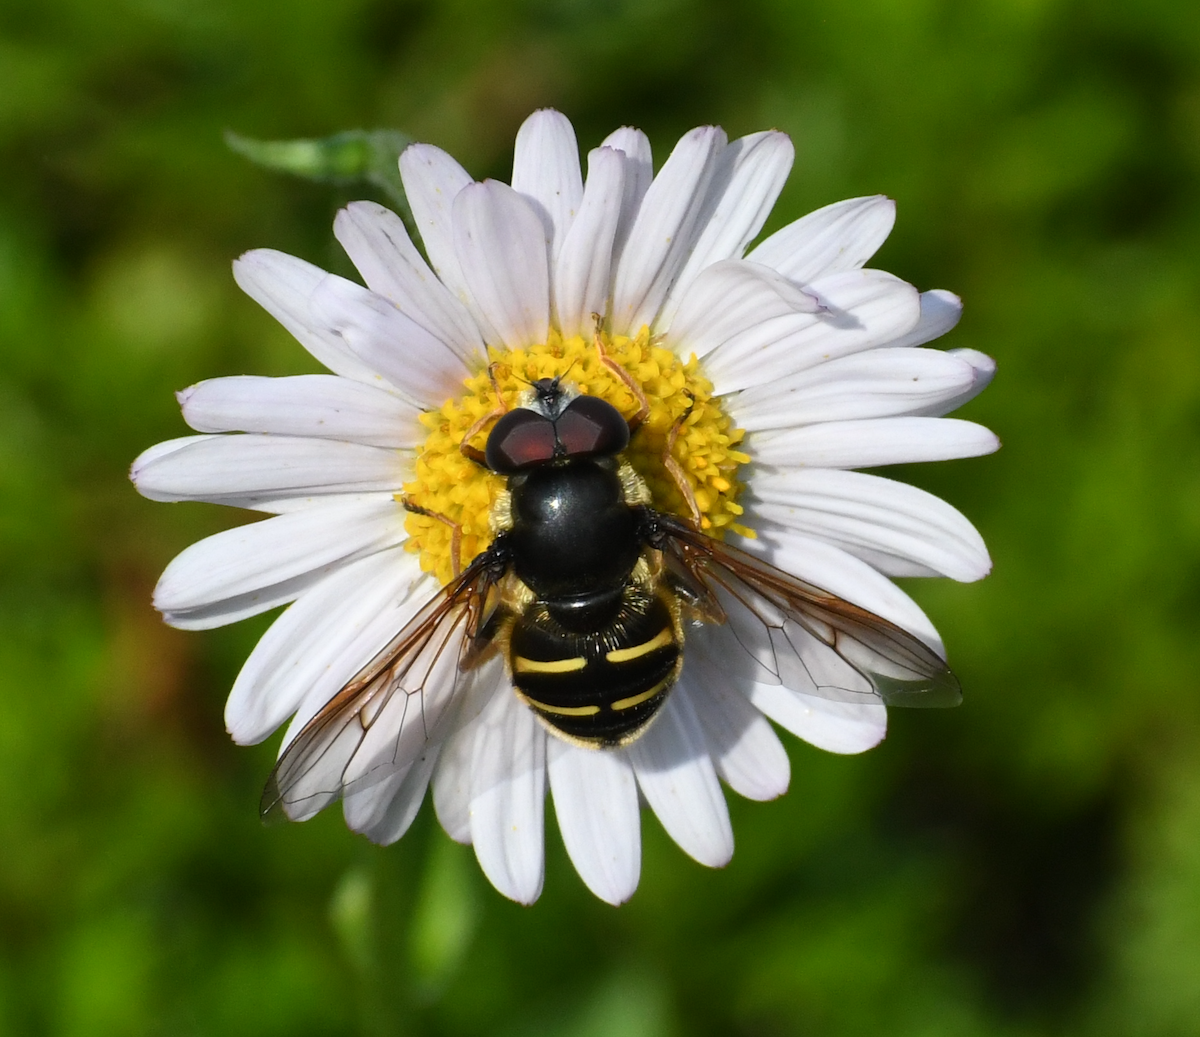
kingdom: Animalia
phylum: Arthropoda
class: Insecta
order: Diptera
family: Syrphidae
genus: Sericomyia
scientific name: Sericomyia chalcopyga
